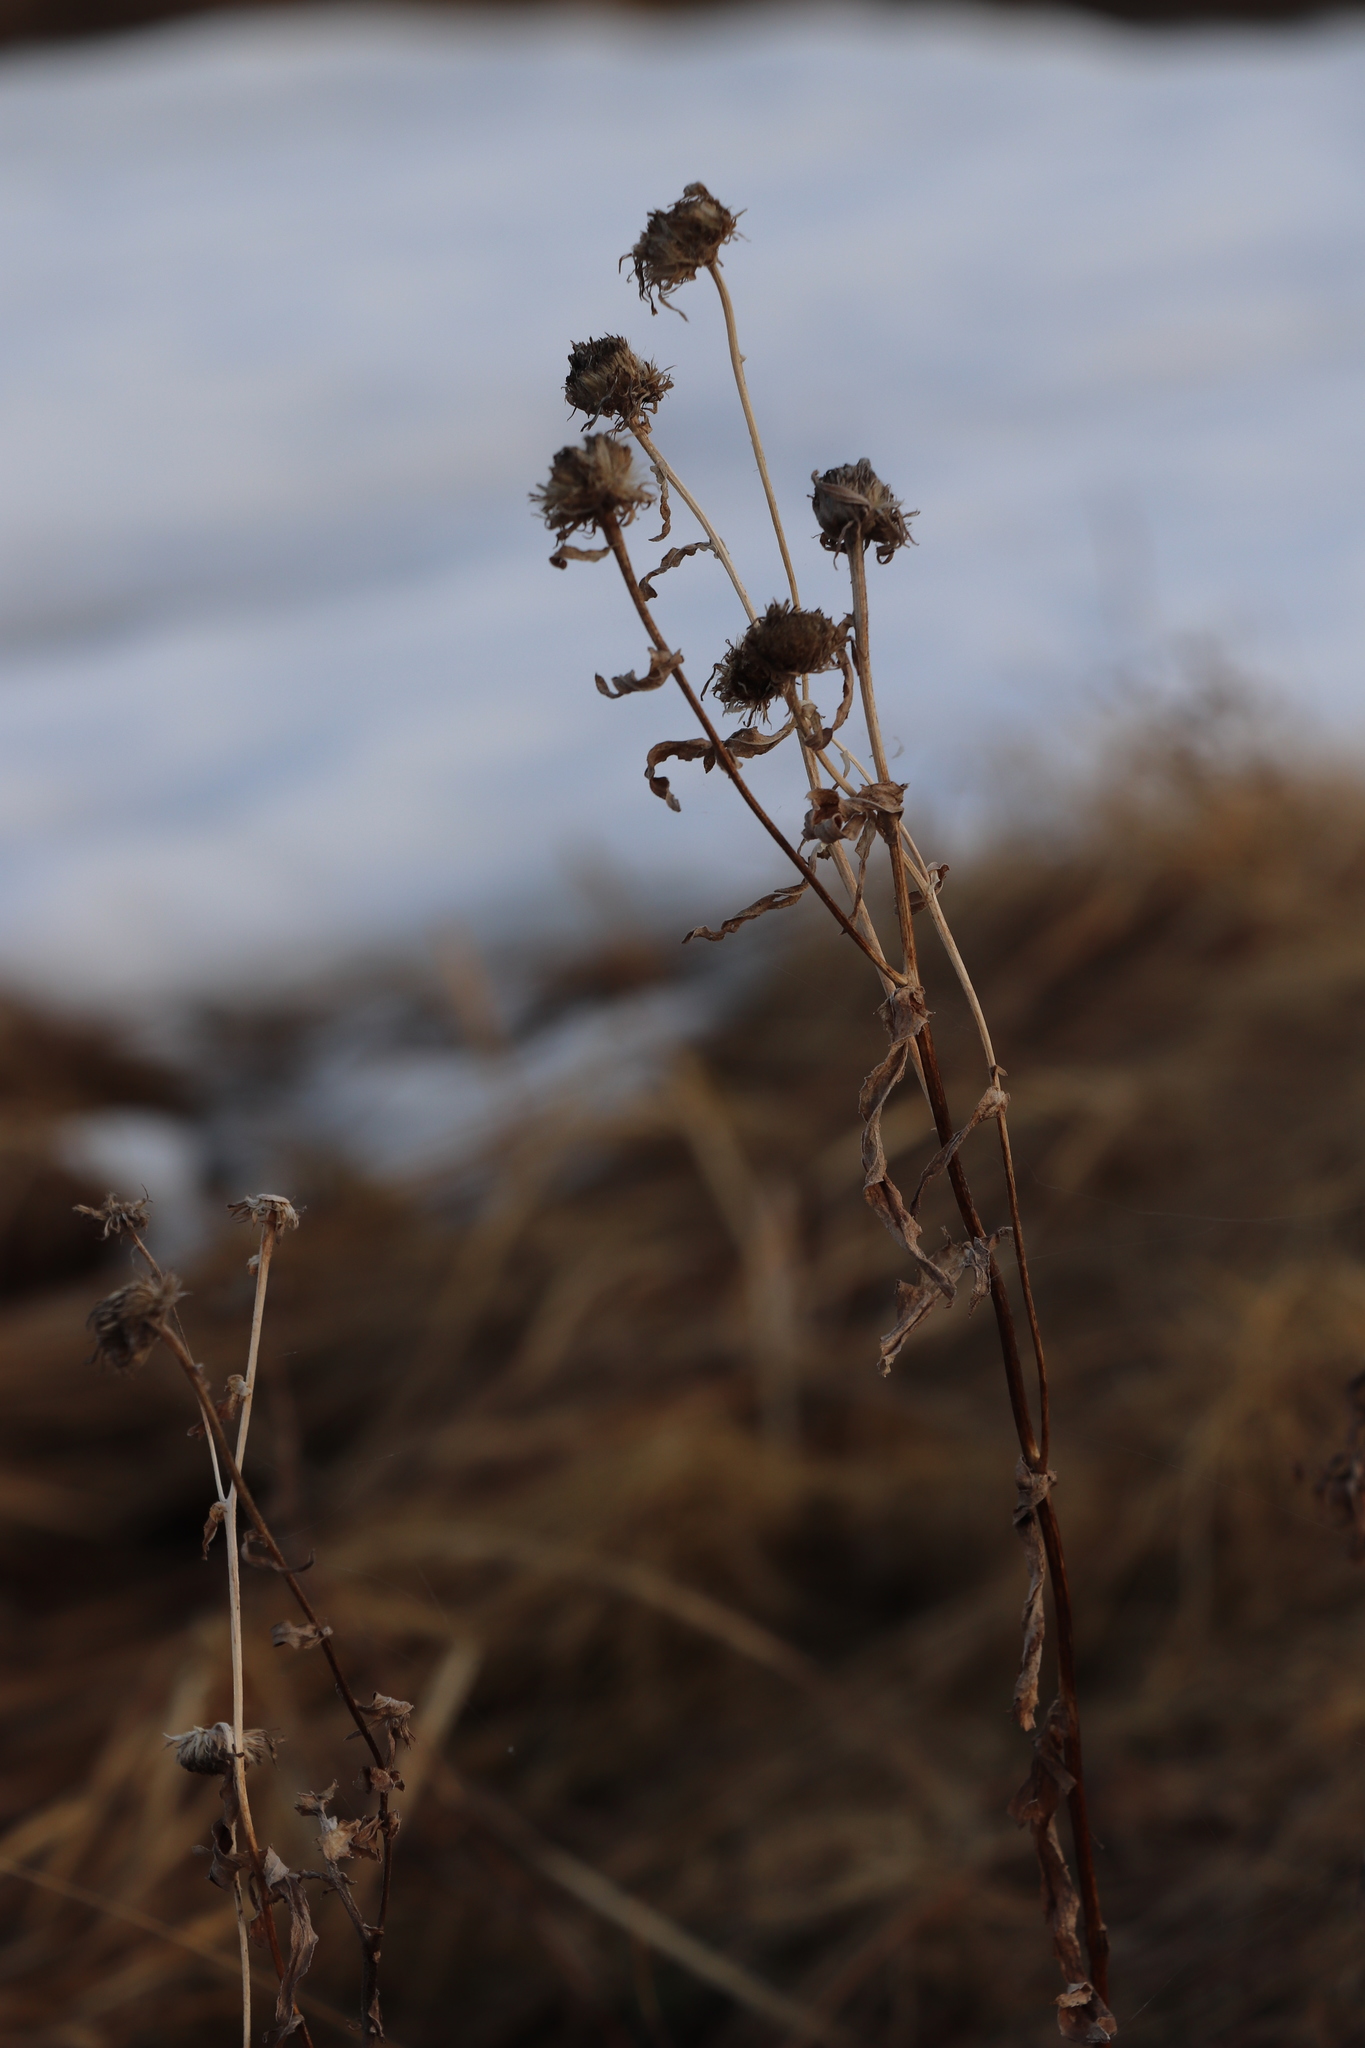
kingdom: Plantae
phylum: Tracheophyta
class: Magnoliopsida
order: Asterales
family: Asteraceae
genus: Pentanema
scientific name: Pentanema britannicum
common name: British elecampane
